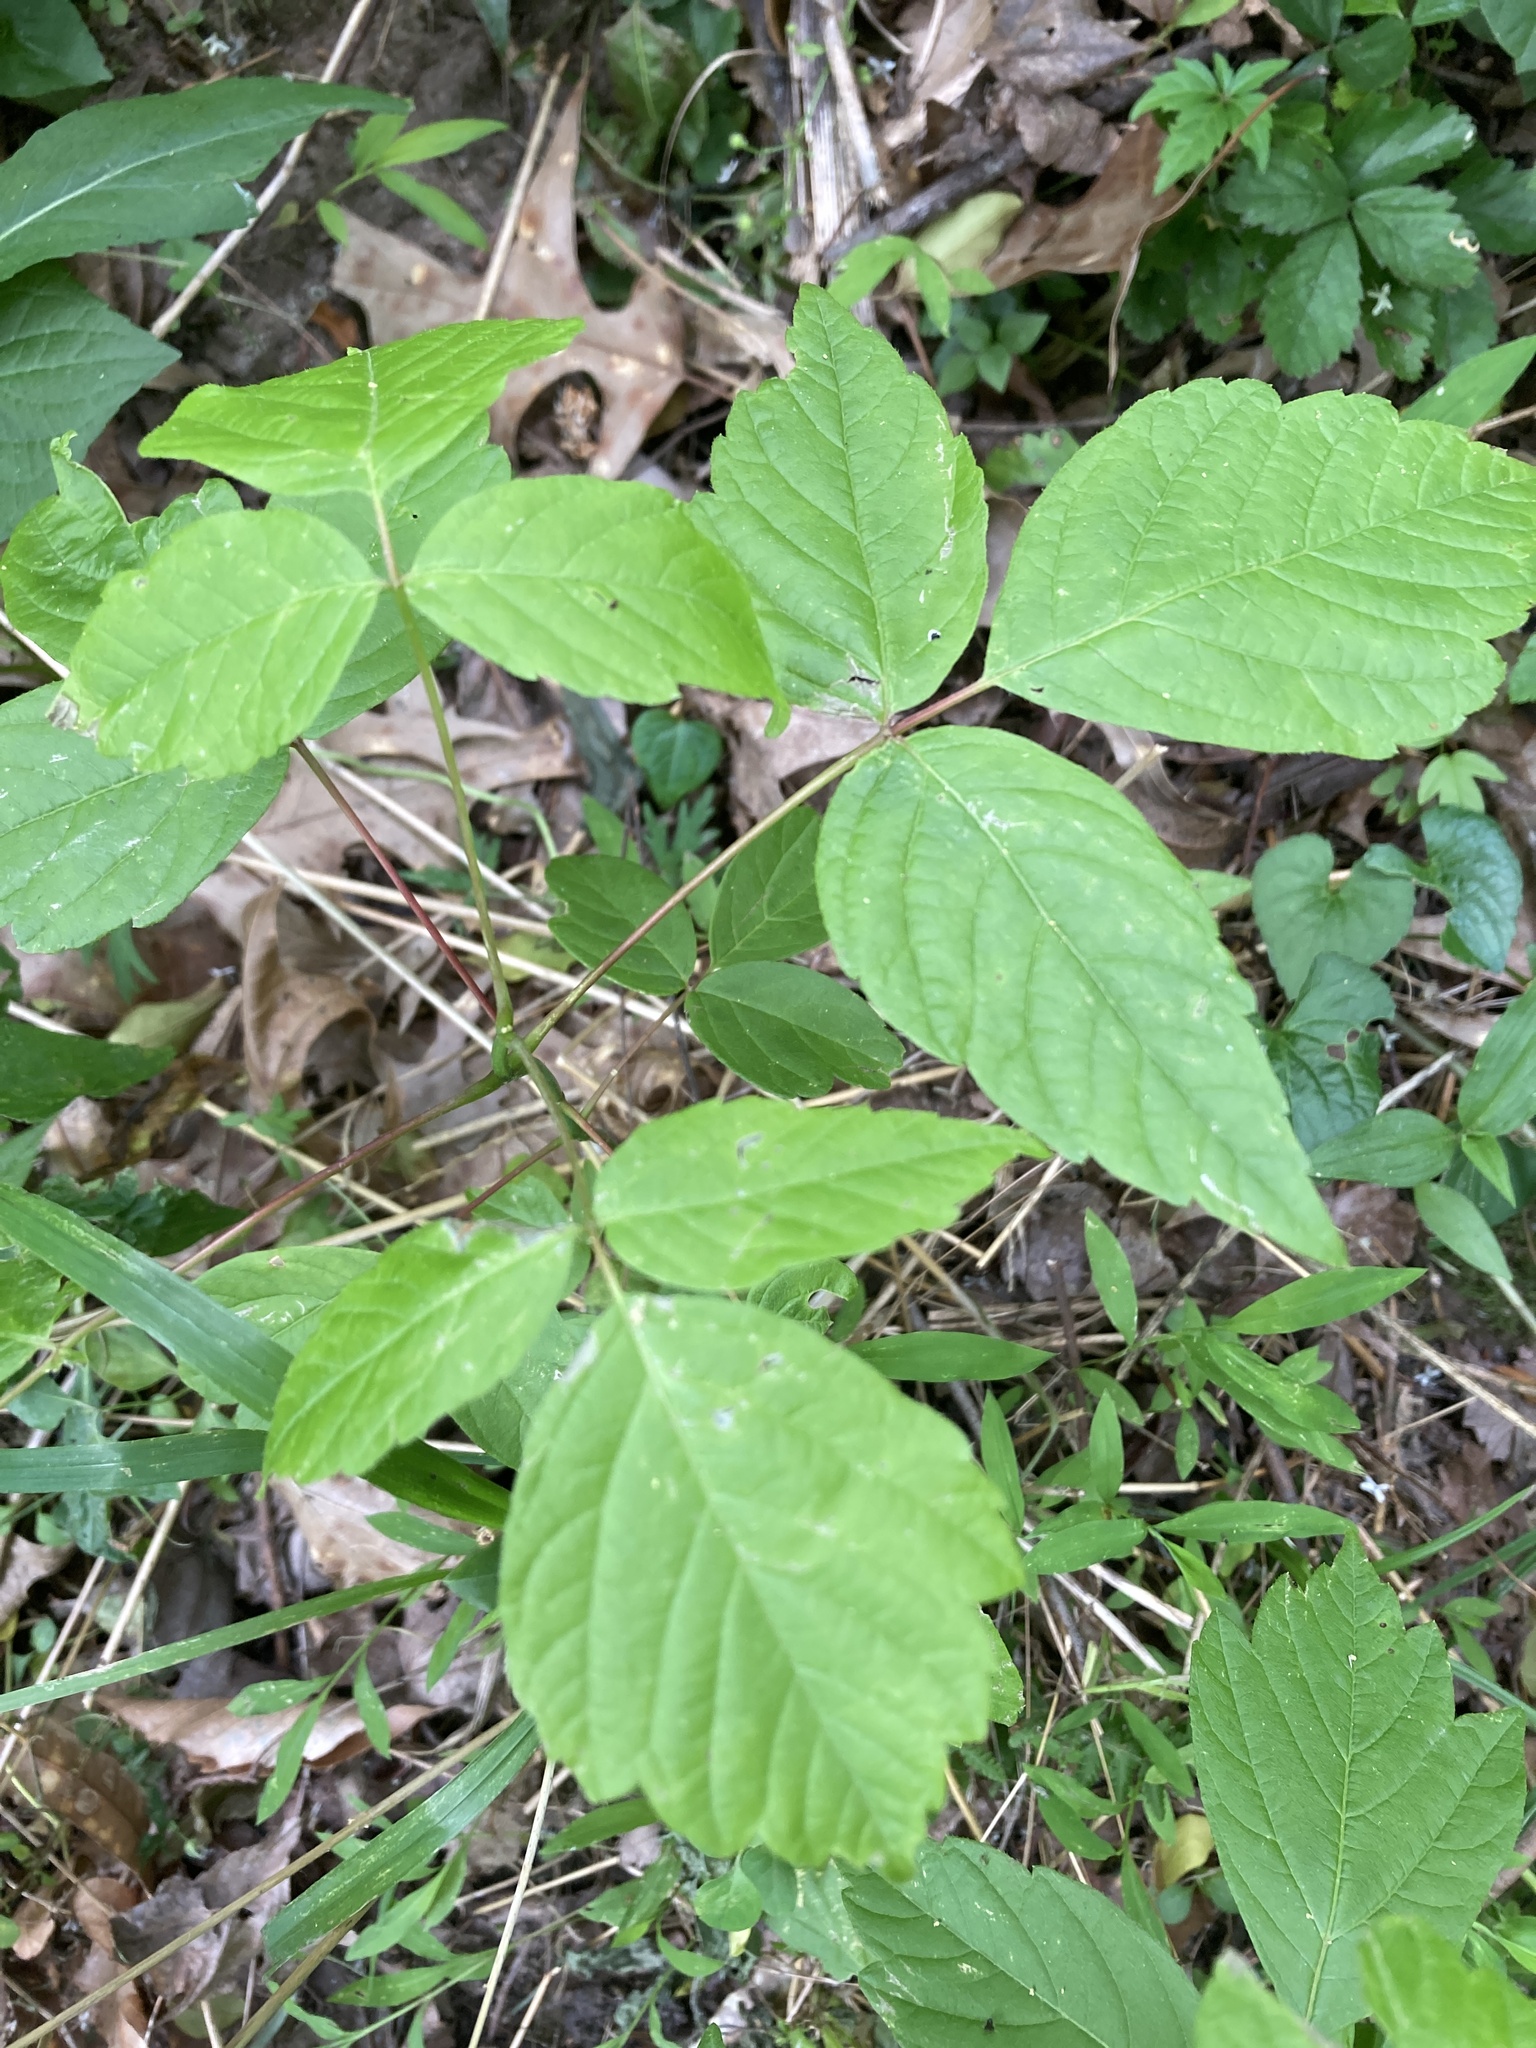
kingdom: Plantae
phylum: Tracheophyta
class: Magnoliopsida
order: Sapindales
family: Sapindaceae
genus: Acer
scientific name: Acer negundo
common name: Ashleaf maple
